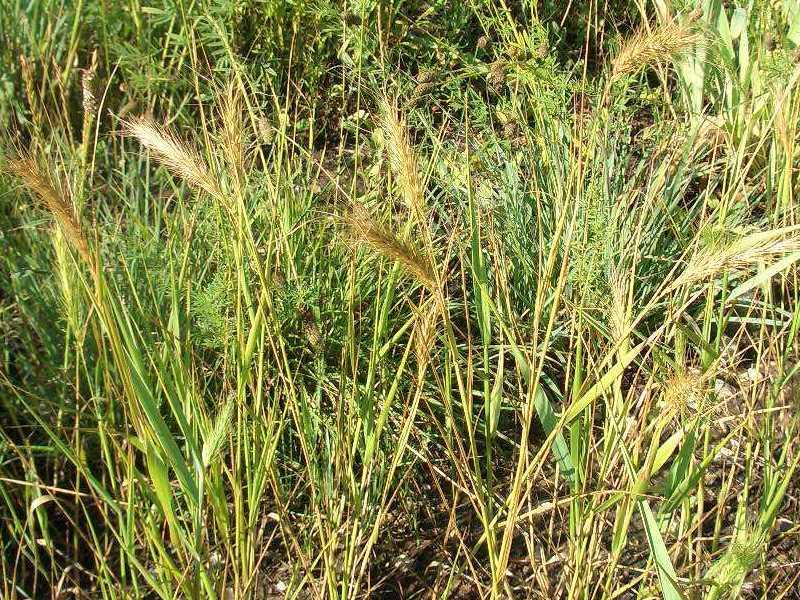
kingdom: Plantae
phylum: Tracheophyta
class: Liliopsida
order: Poales
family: Poaceae
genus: Elymus
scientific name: Elymus canadensis
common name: Canada wild rye
